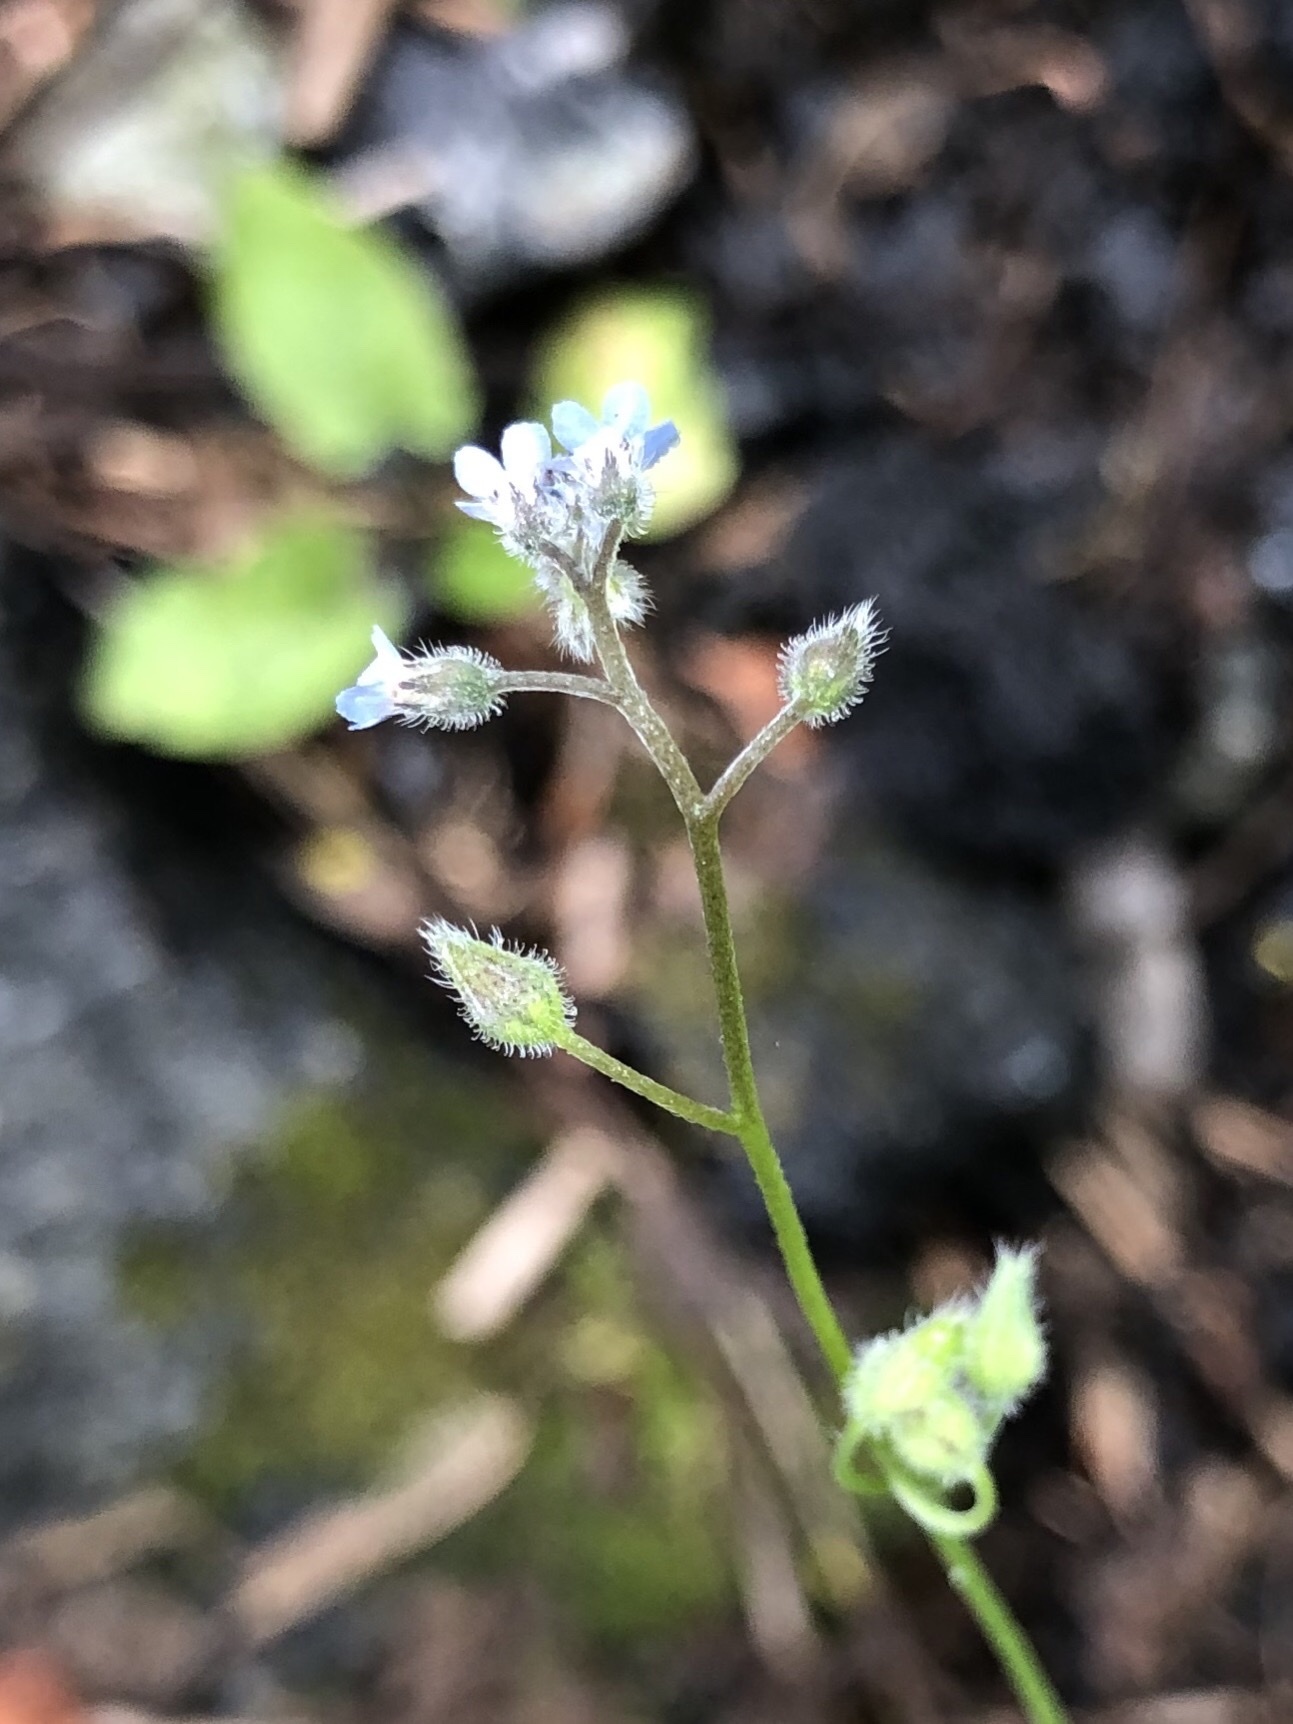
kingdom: Plantae
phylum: Tracheophyta
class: Magnoliopsida
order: Boraginales
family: Boraginaceae
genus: Myosotis
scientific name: Myosotis imitata
